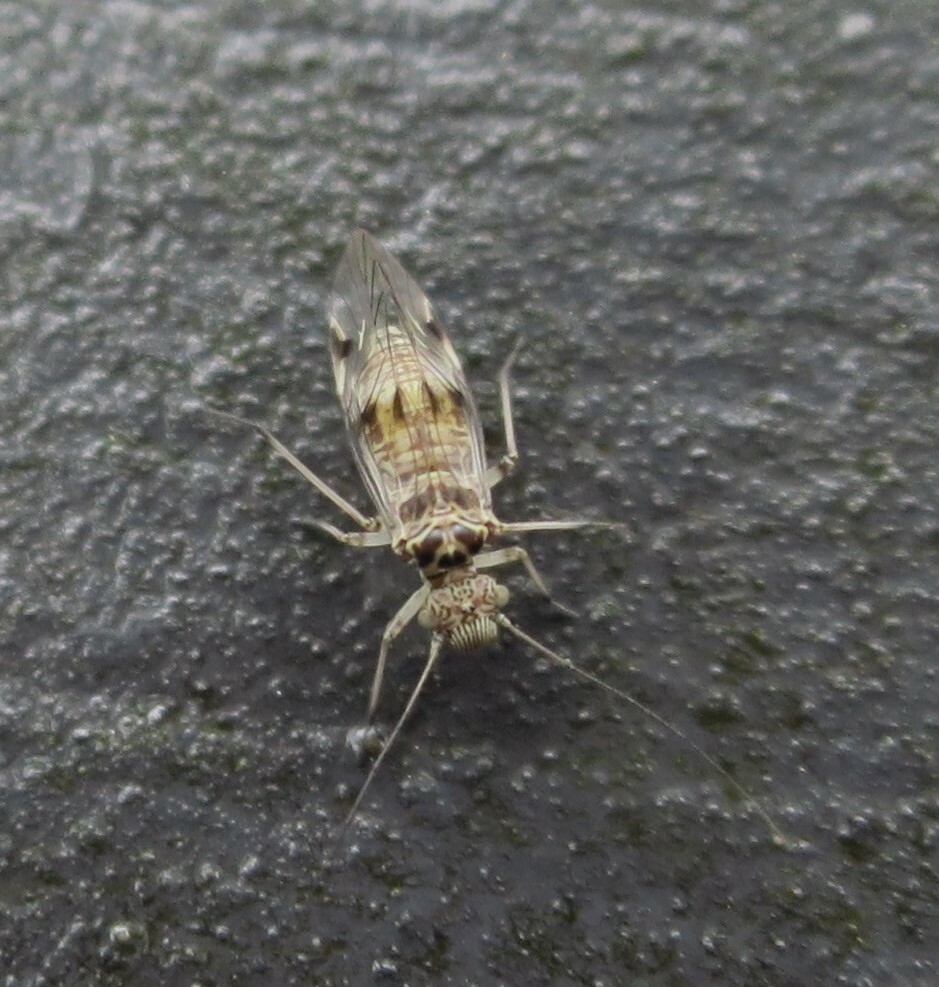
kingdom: Animalia
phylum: Arthropoda
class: Insecta
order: Psocodea
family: Psocidae
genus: Clematostigma
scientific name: Clematostigma maculiceps
